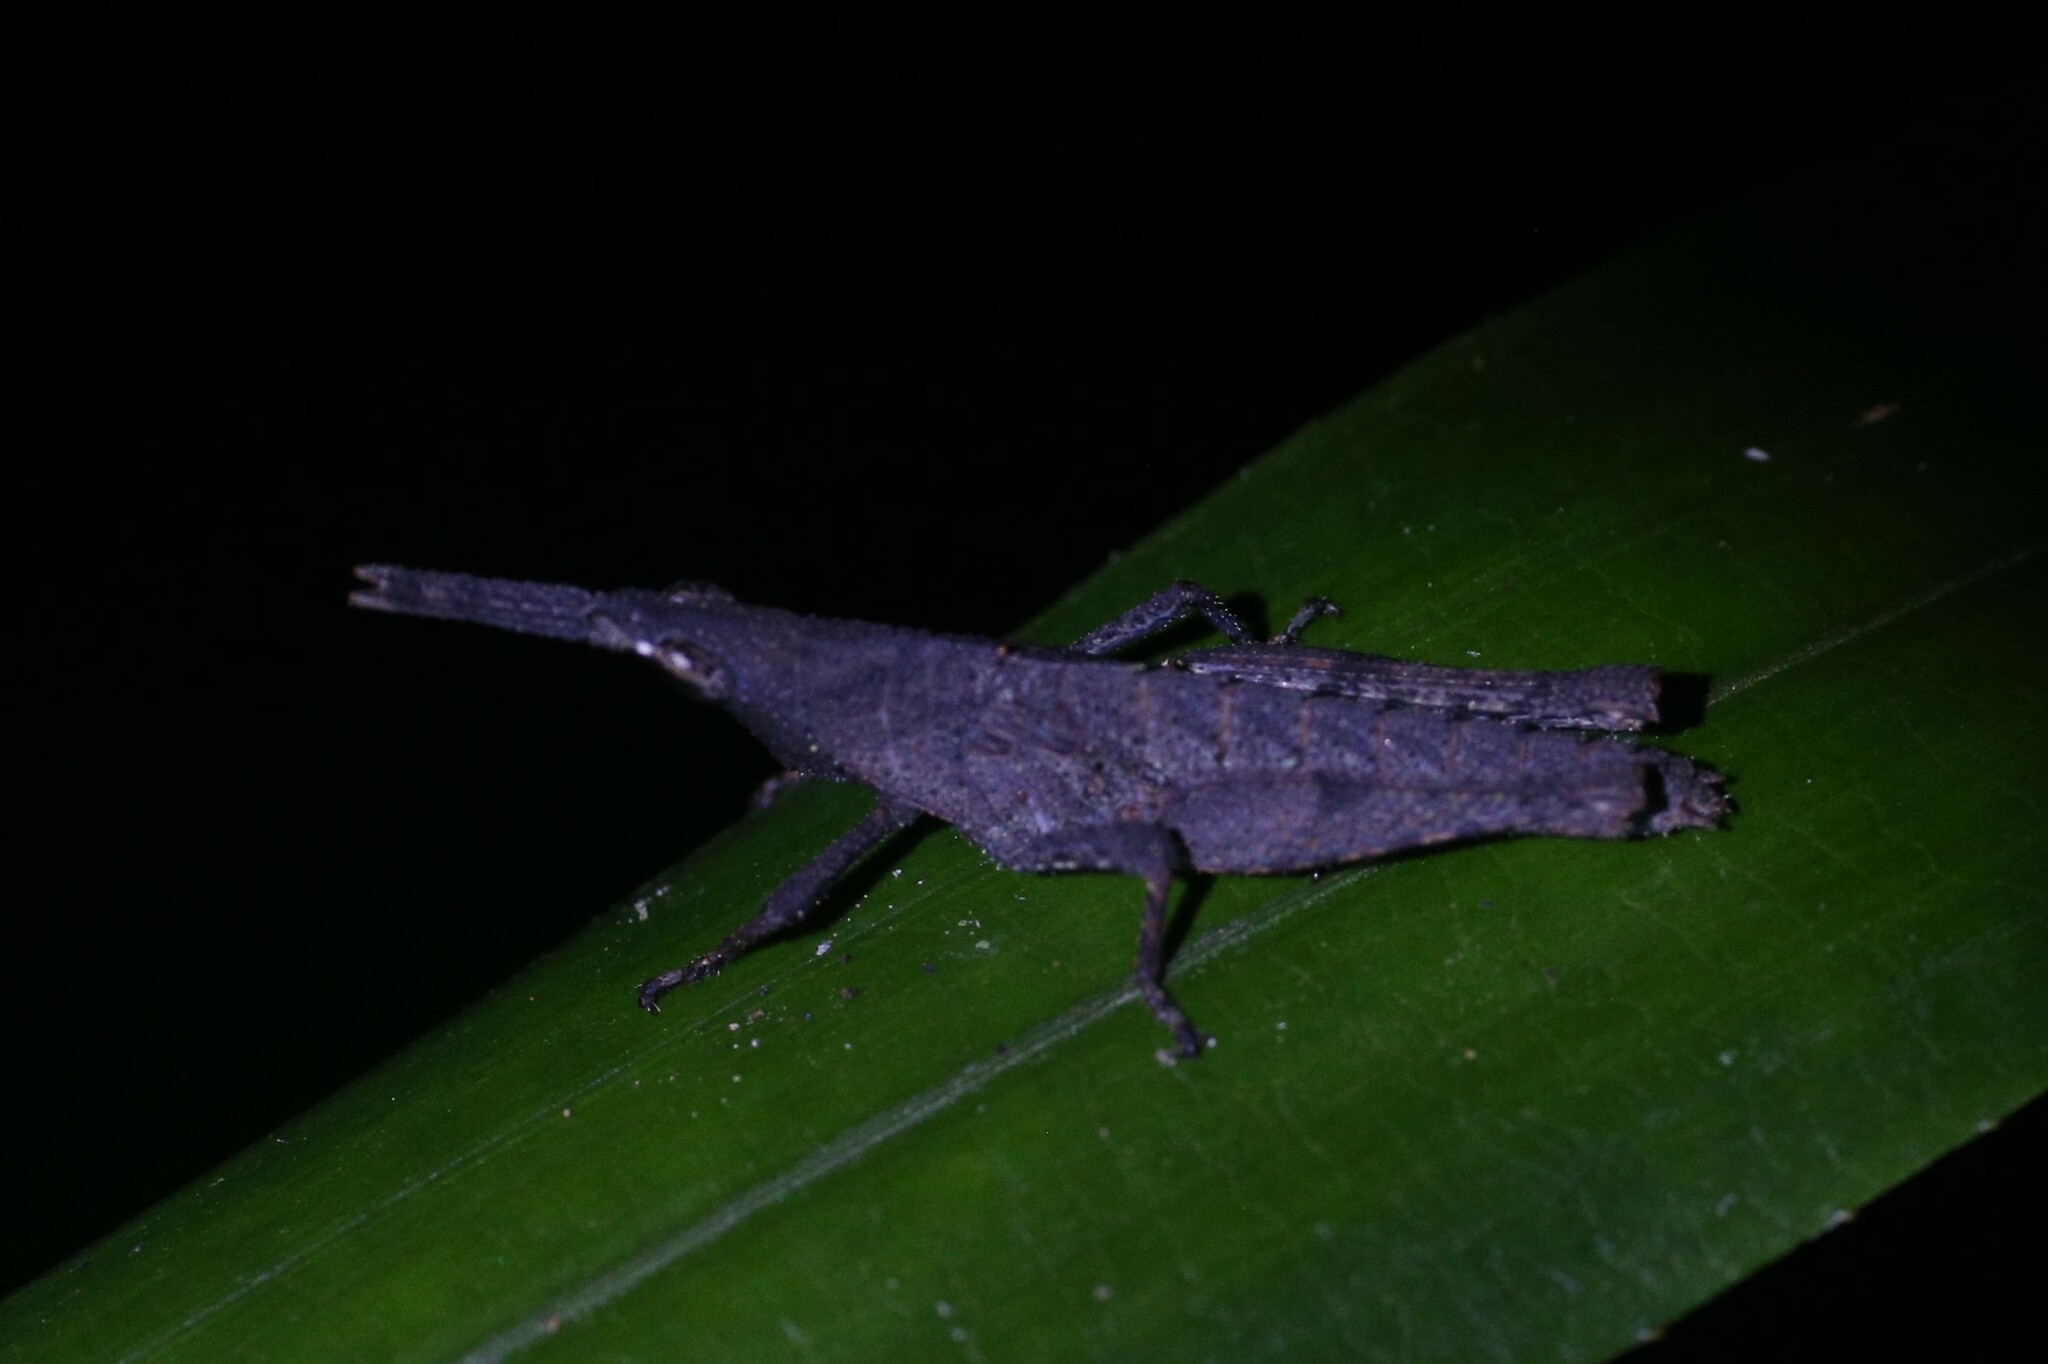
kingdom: Animalia
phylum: Arthropoda
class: Insecta
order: Orthoptera
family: Pyrgomorphidae
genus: Desmoptera
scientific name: Desmoptera truncatipennis
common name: Large forest pyrgomorph
